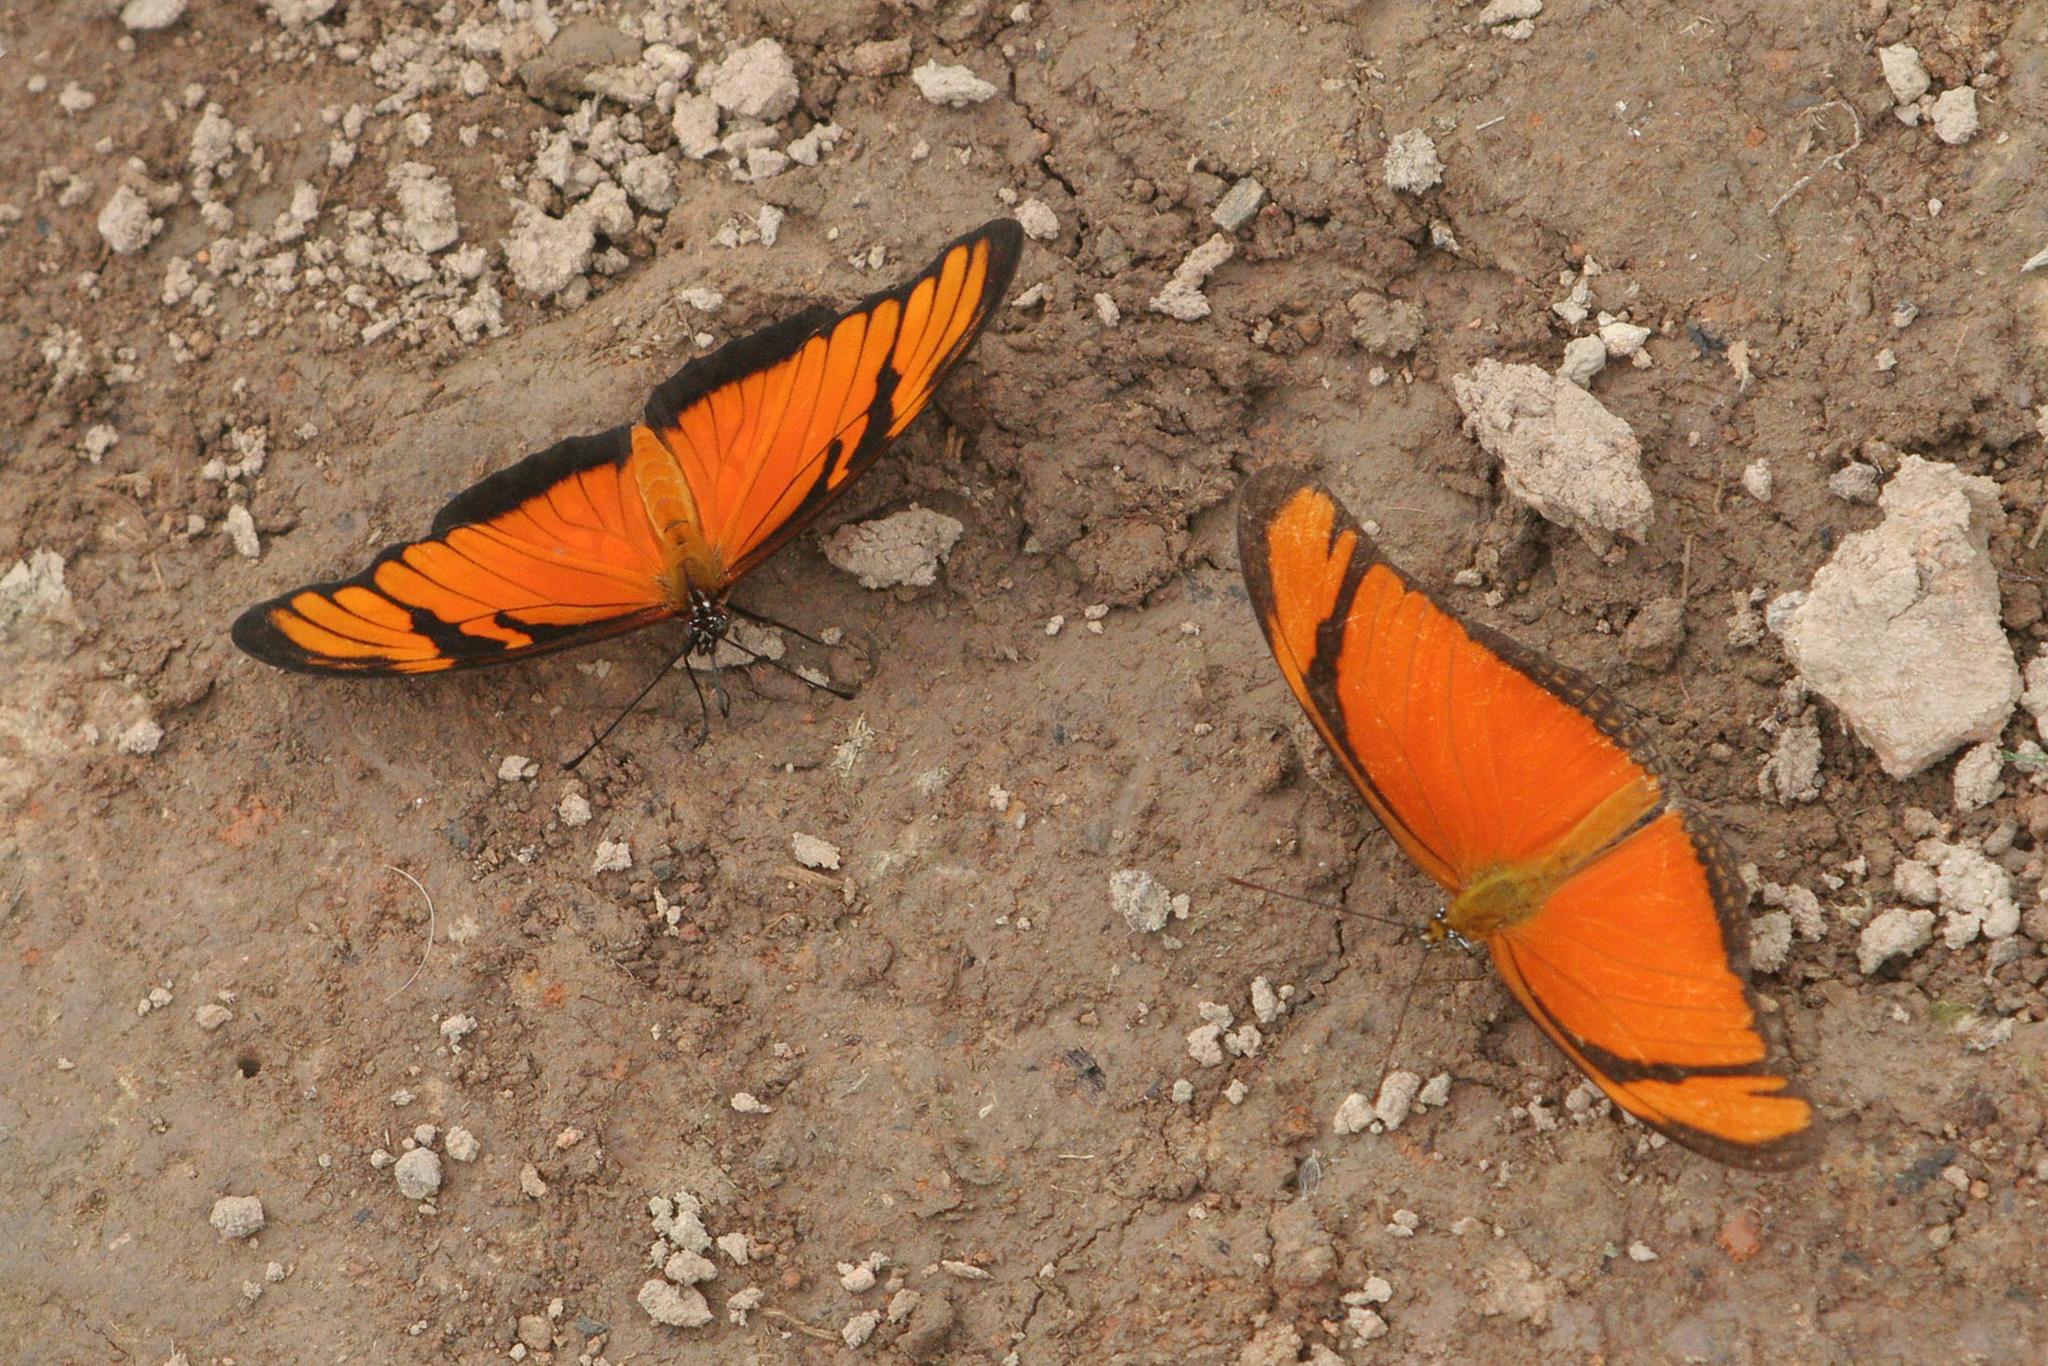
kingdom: Animalia
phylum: Arthropoda
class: Insecta
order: Lepidoptera
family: Nymphalidae
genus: Dione
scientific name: Dione juno
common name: Juno silverspot
